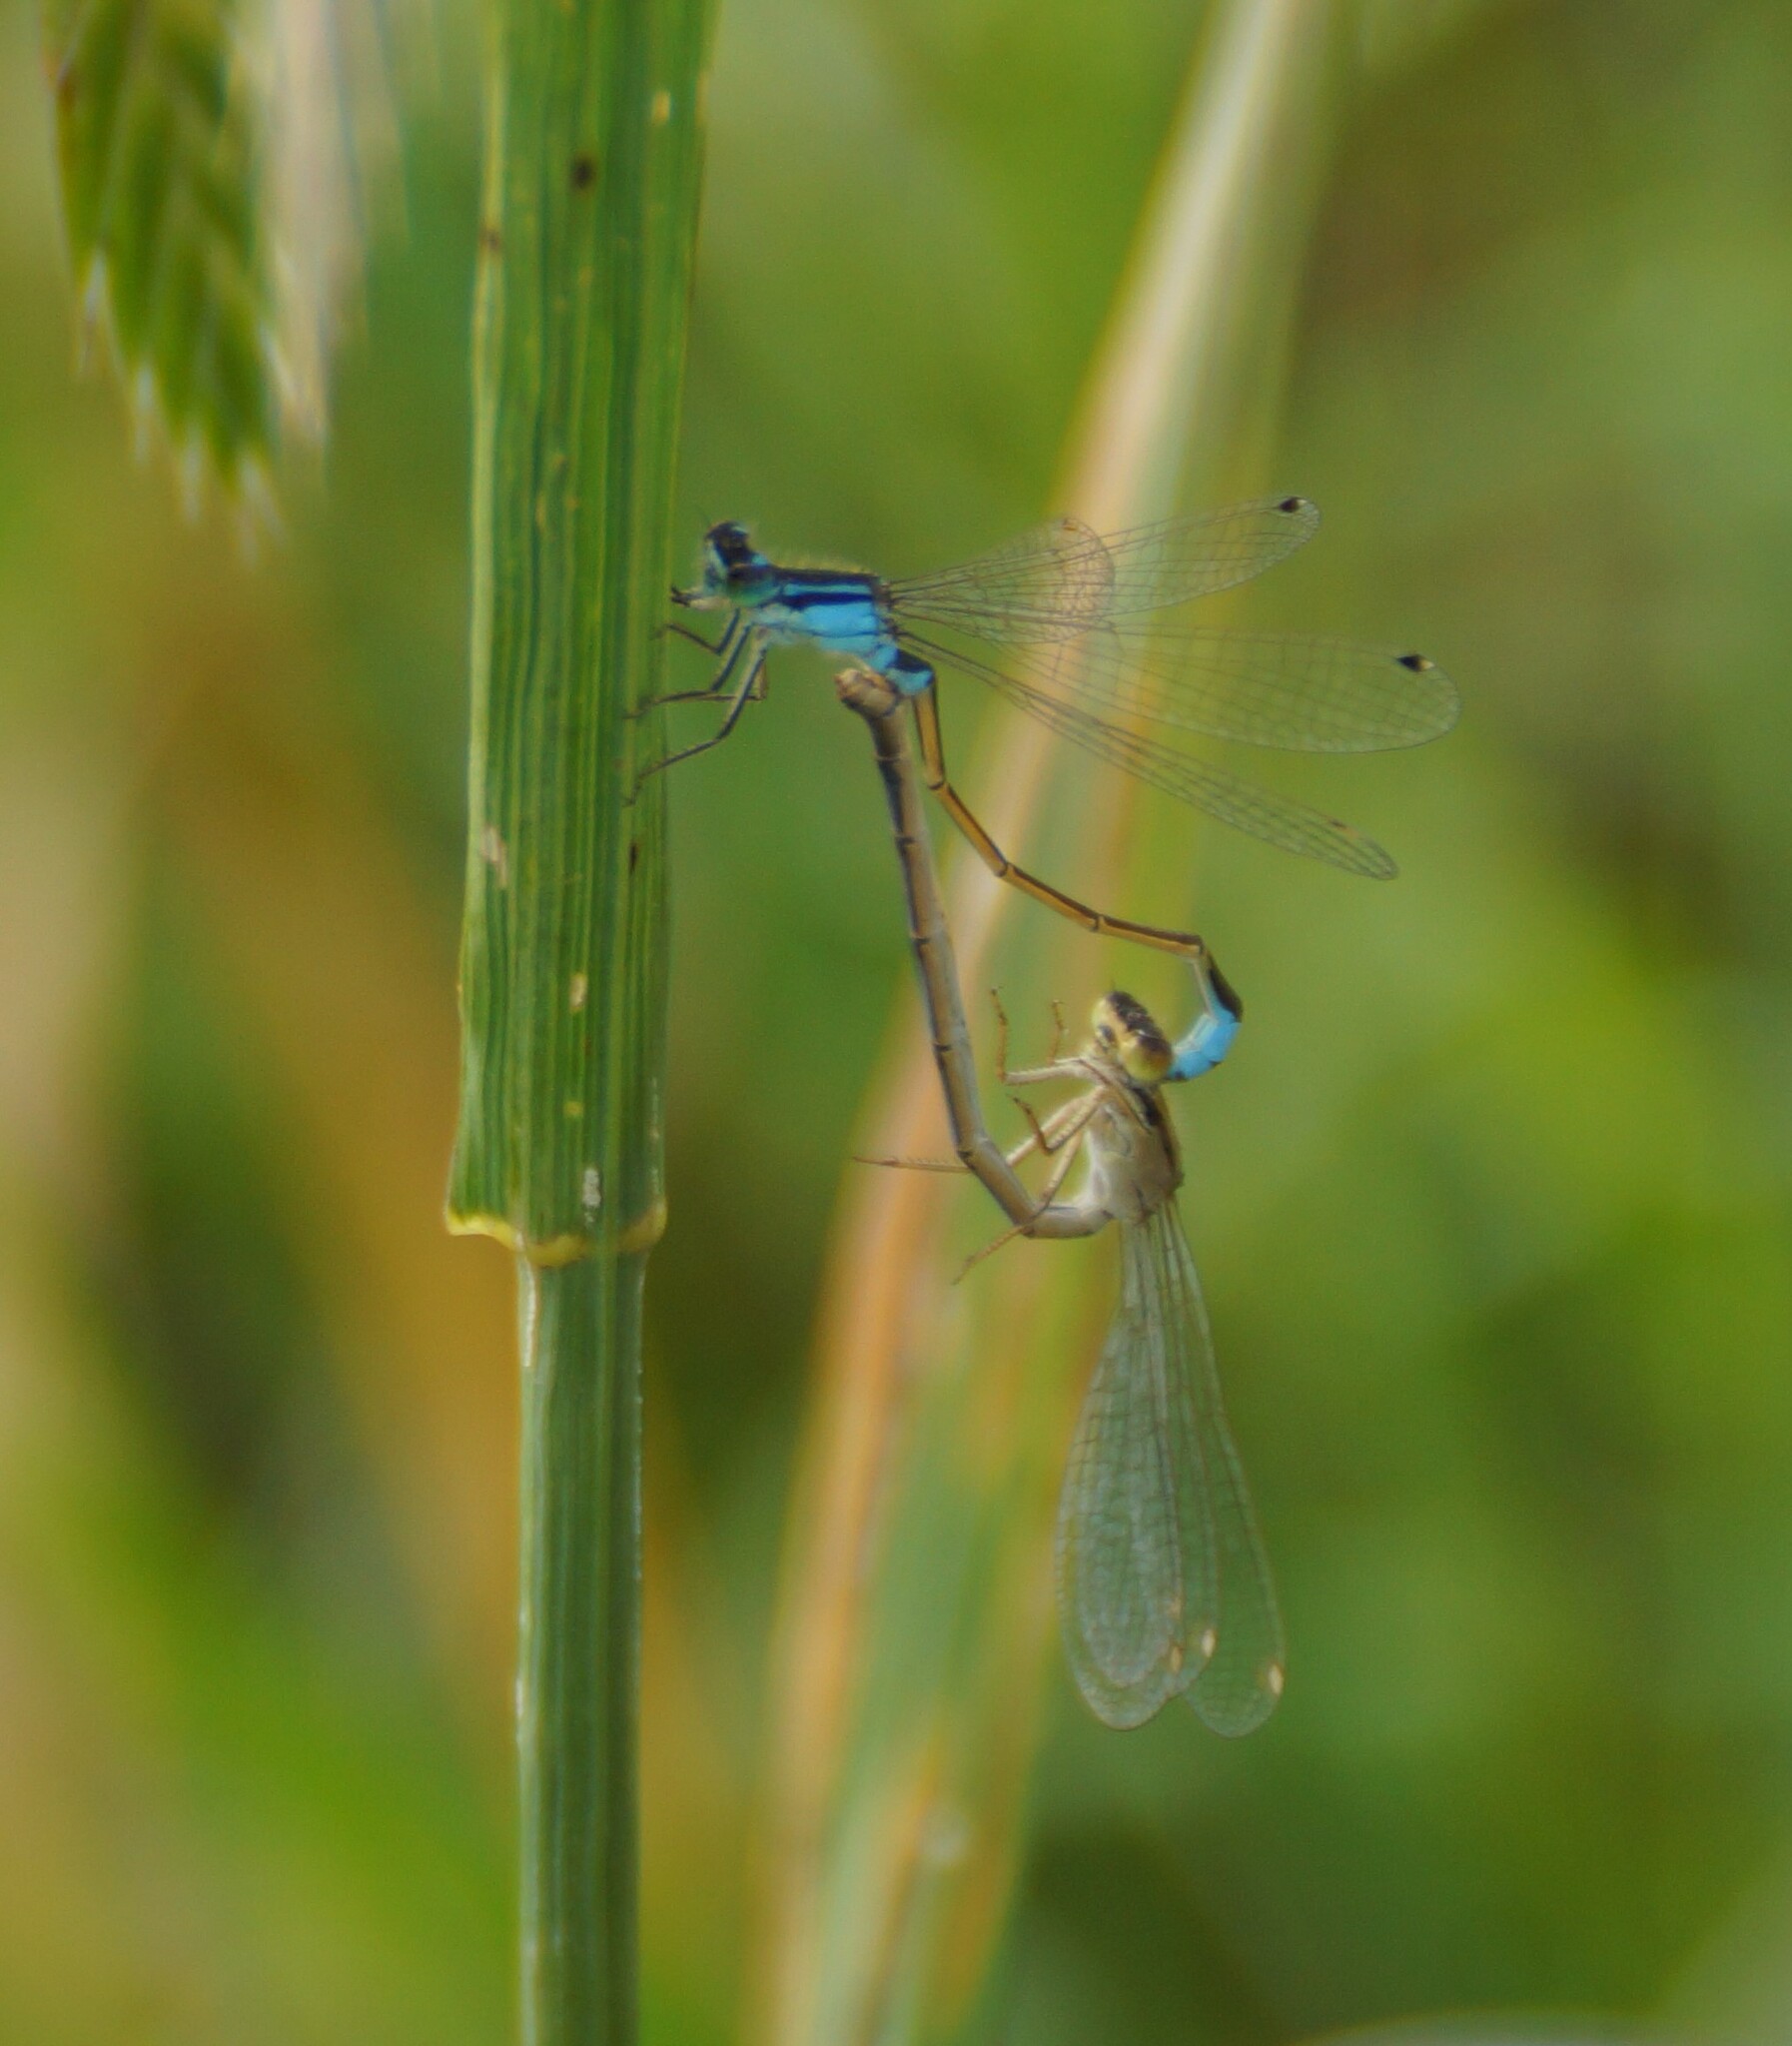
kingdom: Animalia
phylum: Arthropoda
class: Insecta
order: Odonata
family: Coenagrionidae
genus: Ischnura
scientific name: Ischnura heterosticta
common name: Common bluetail
